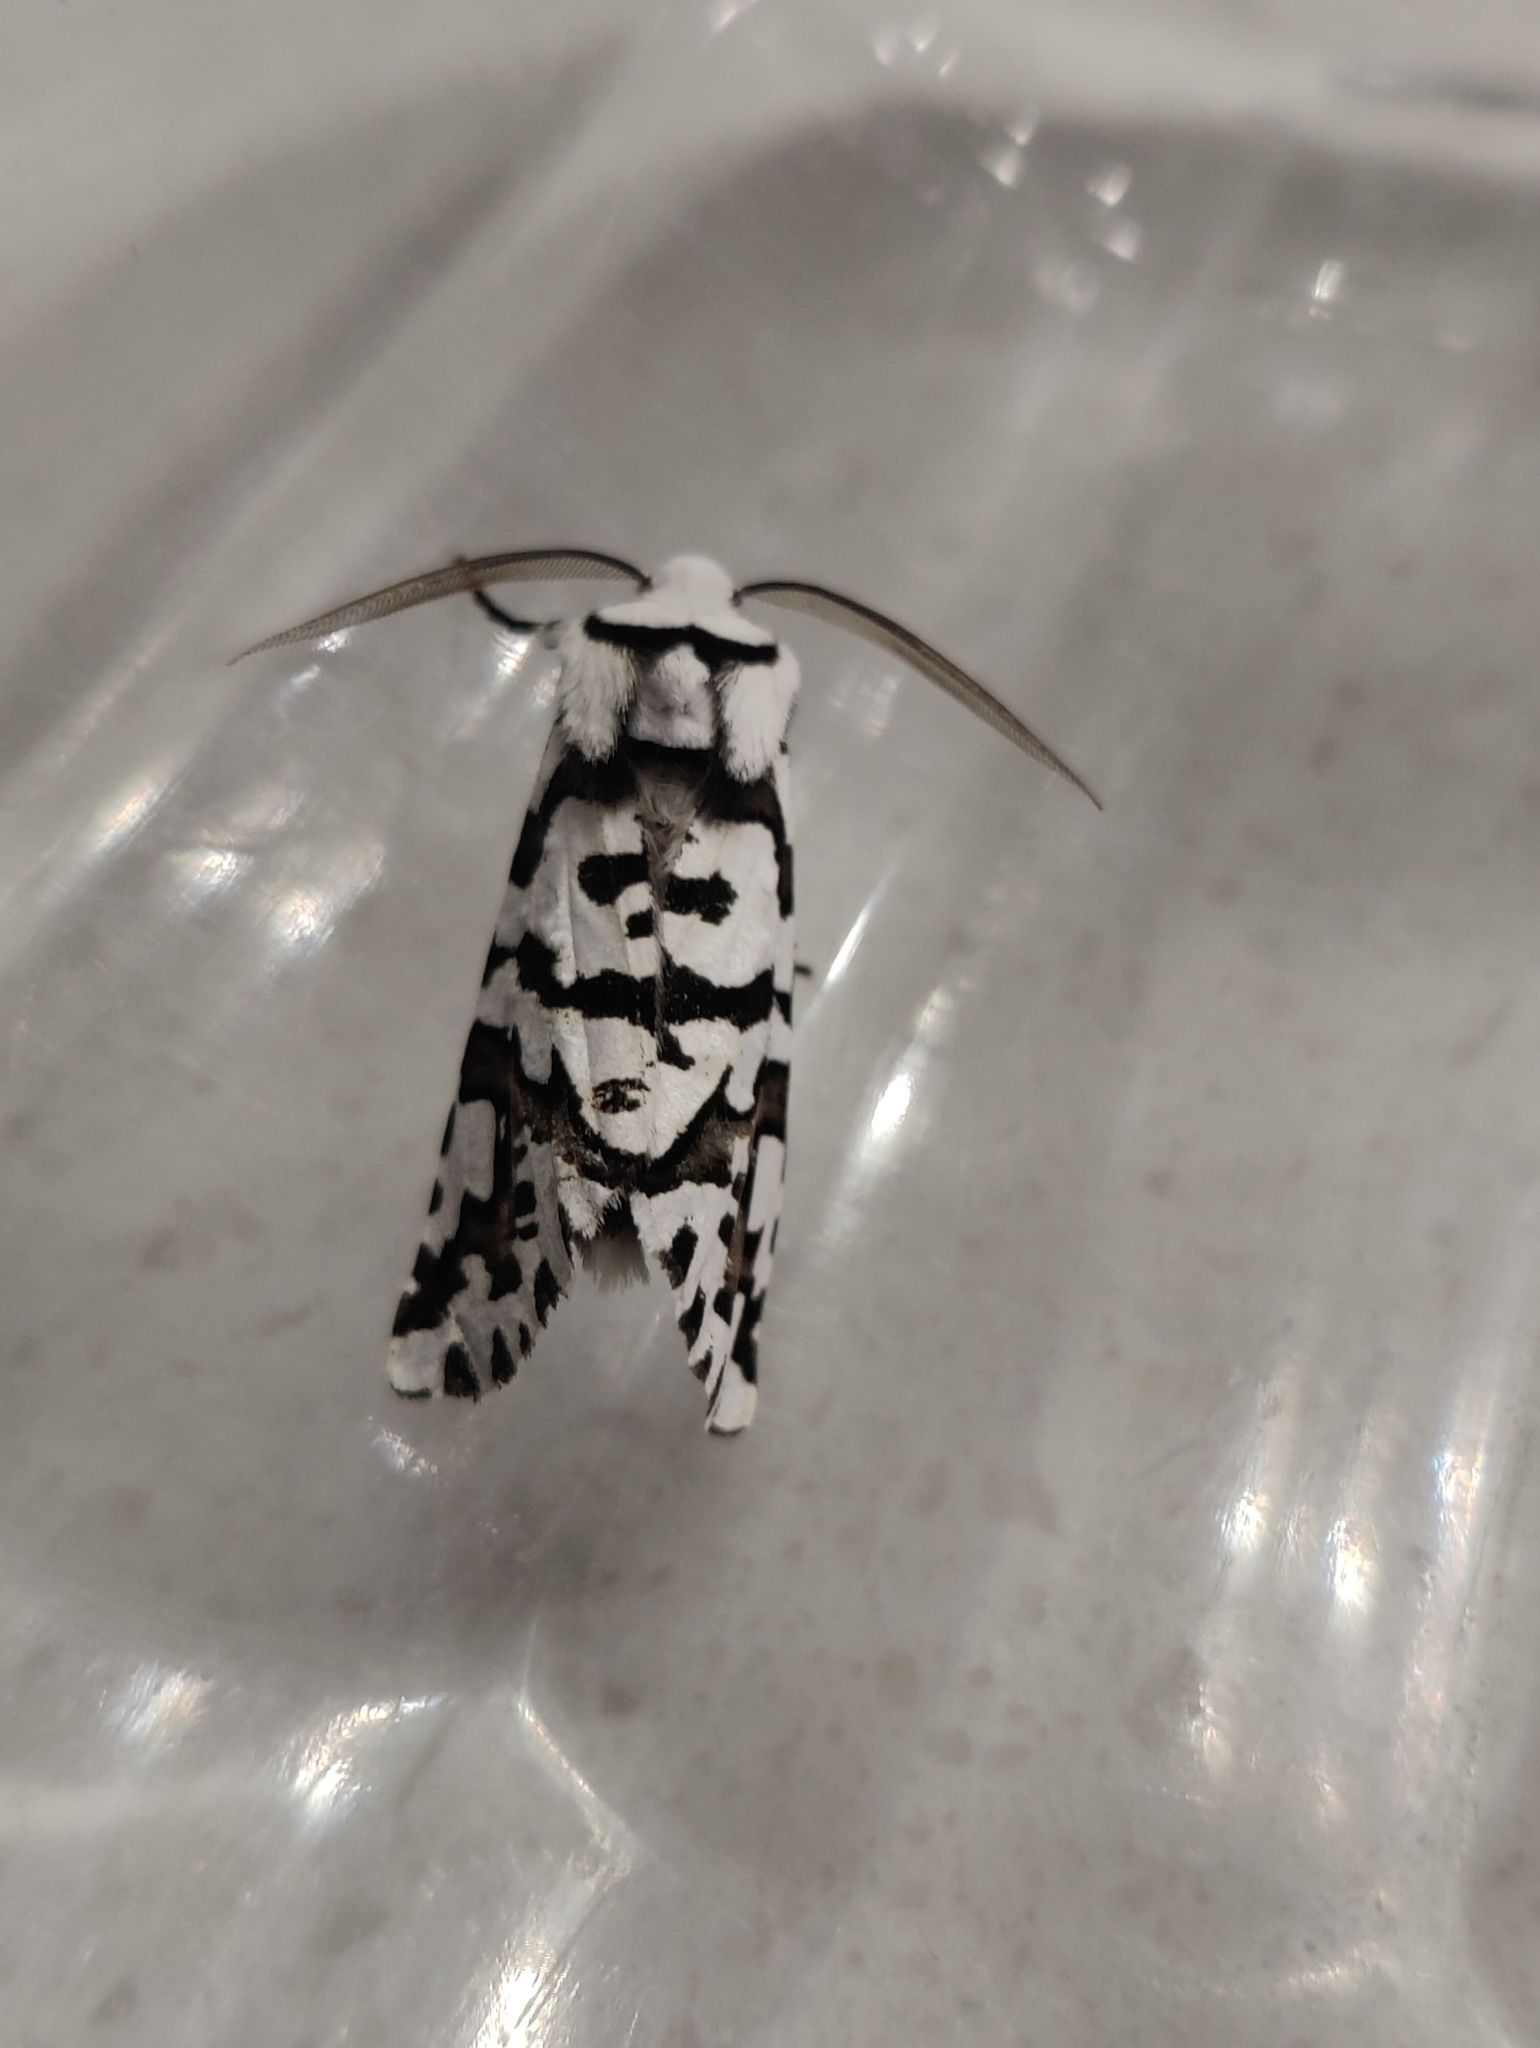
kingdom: Animalia
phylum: Arthropoda
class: Insecta
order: Lepidoptera
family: Geometridae
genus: Declana
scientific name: Declana
